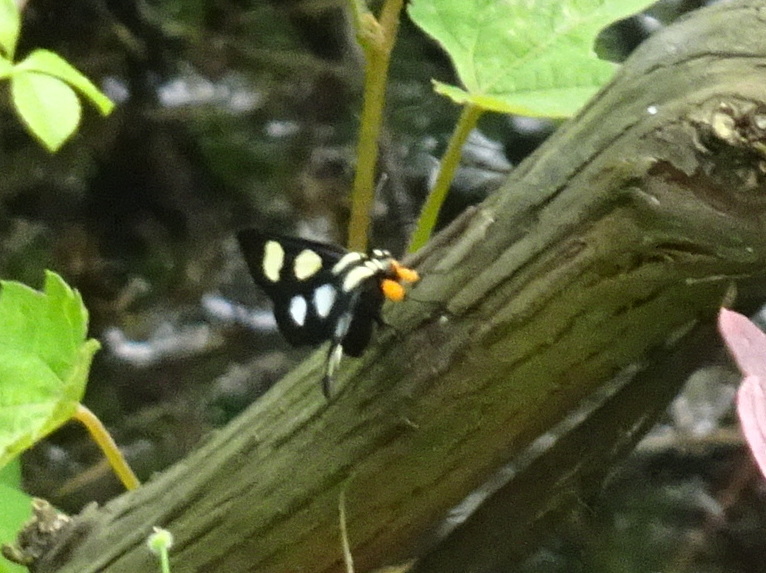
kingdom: Animalia
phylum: Arthropoda
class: Insecta
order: Lepidoptera
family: Noctuidae
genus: Alypia
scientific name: Alypia octomaculata
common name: Eight-spotted forester
